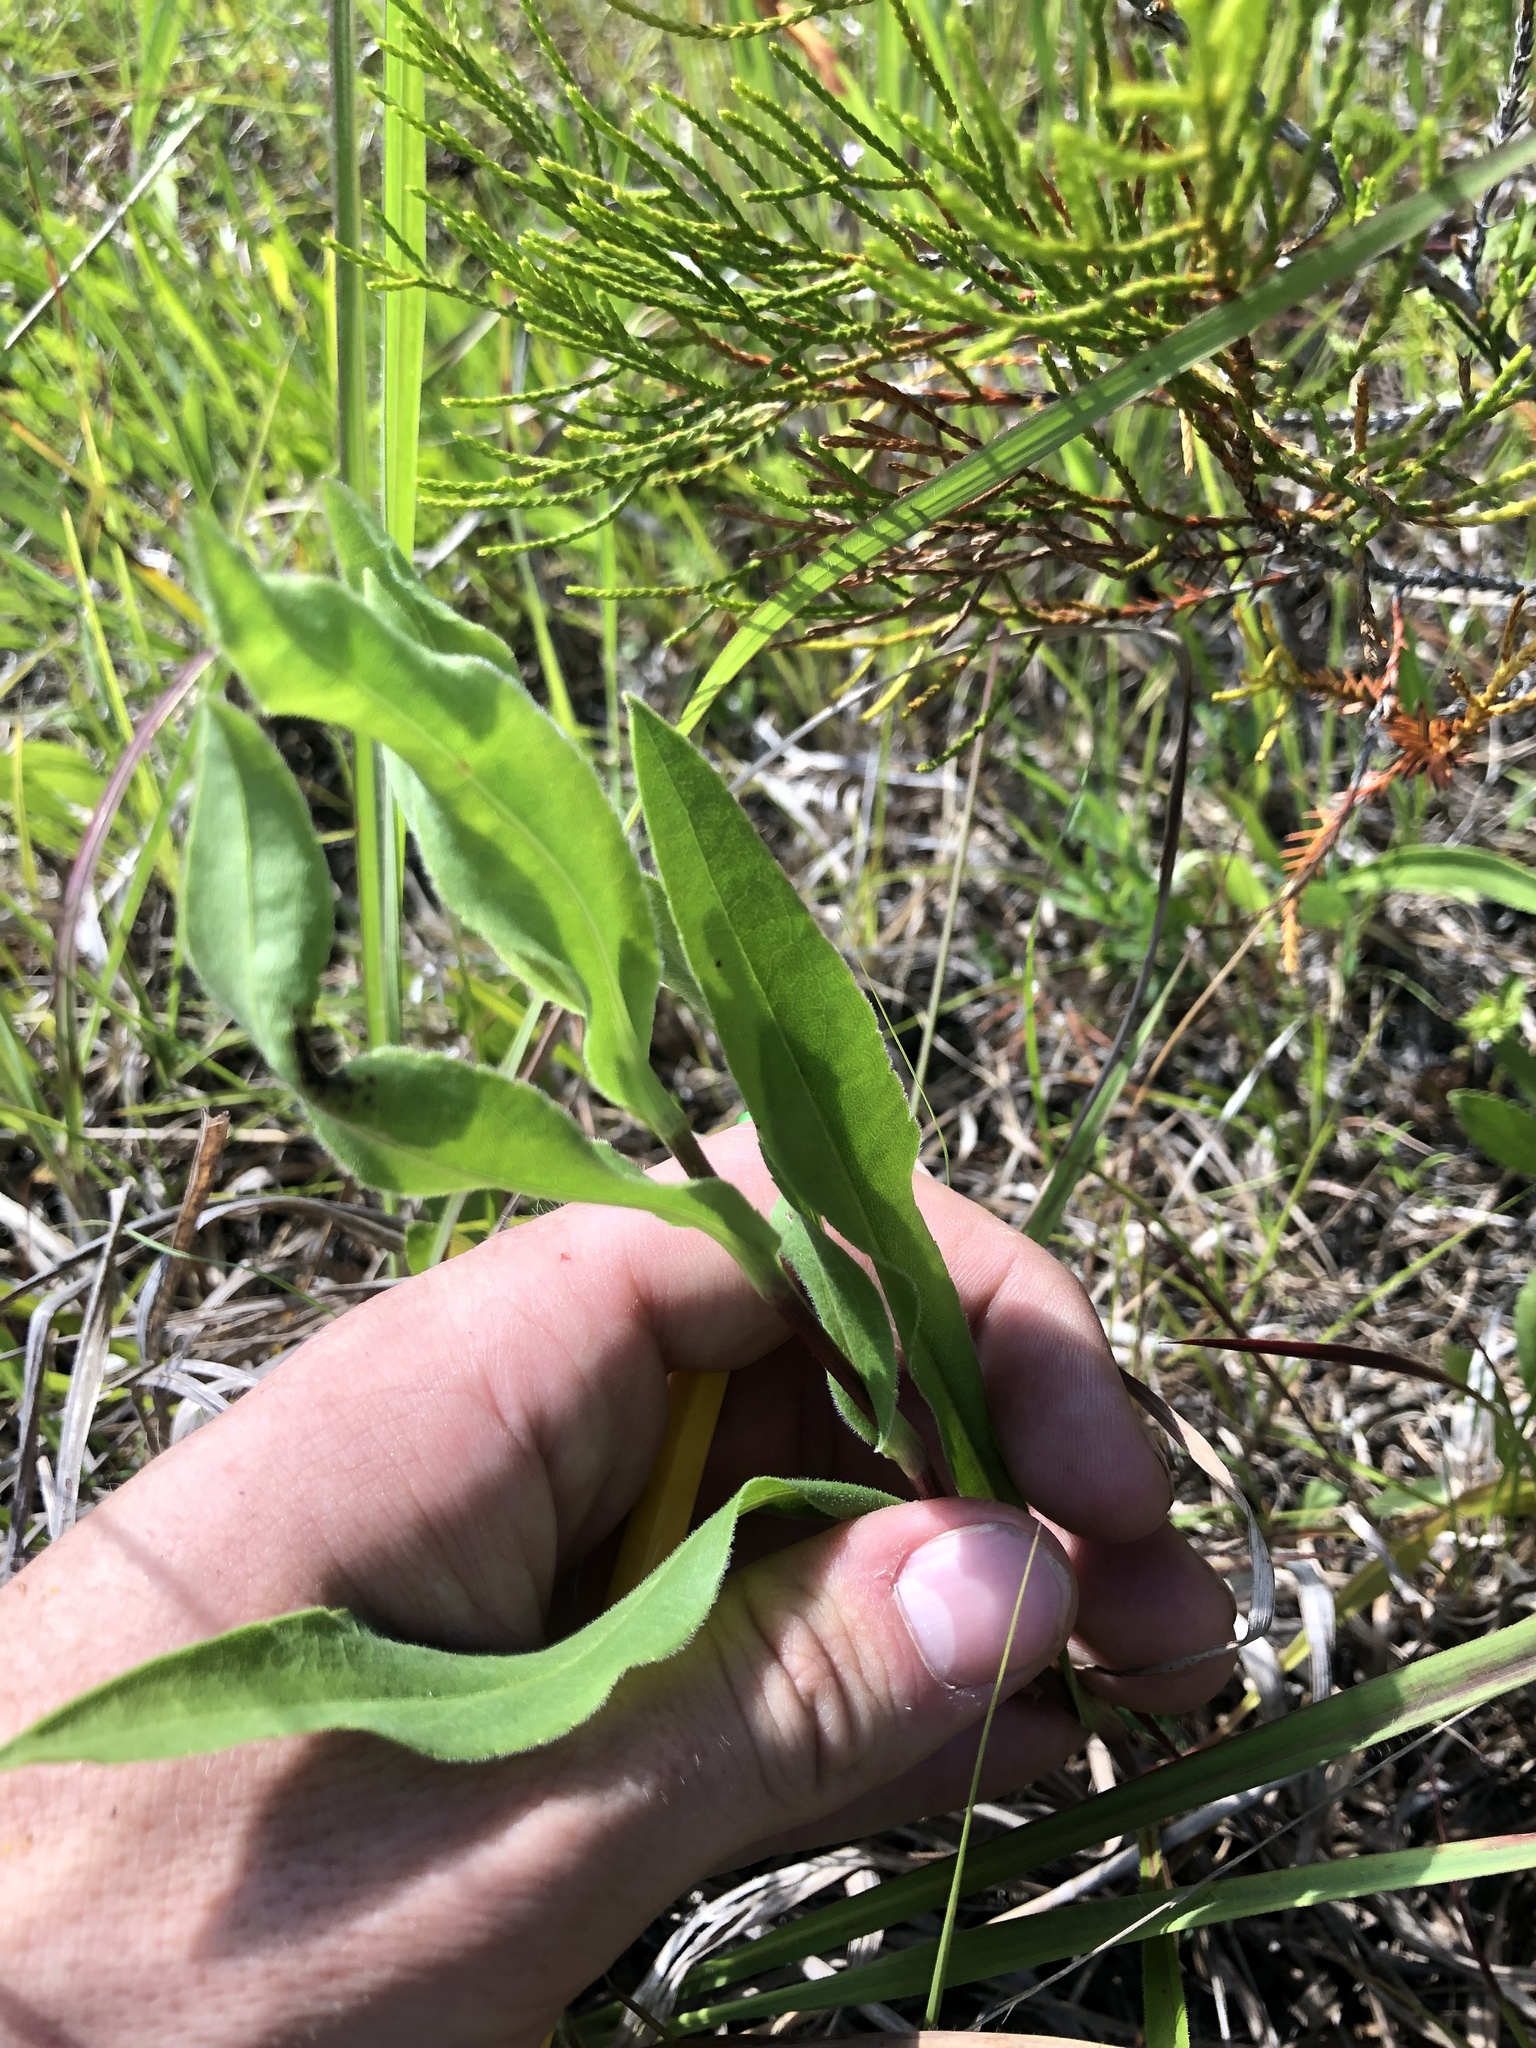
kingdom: Plantae
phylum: Tracheophyta
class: Magnoliopsida
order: Asterales
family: Asteraceae
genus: Solidago
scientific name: Solidago rigida
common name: Rigid goldenrod
